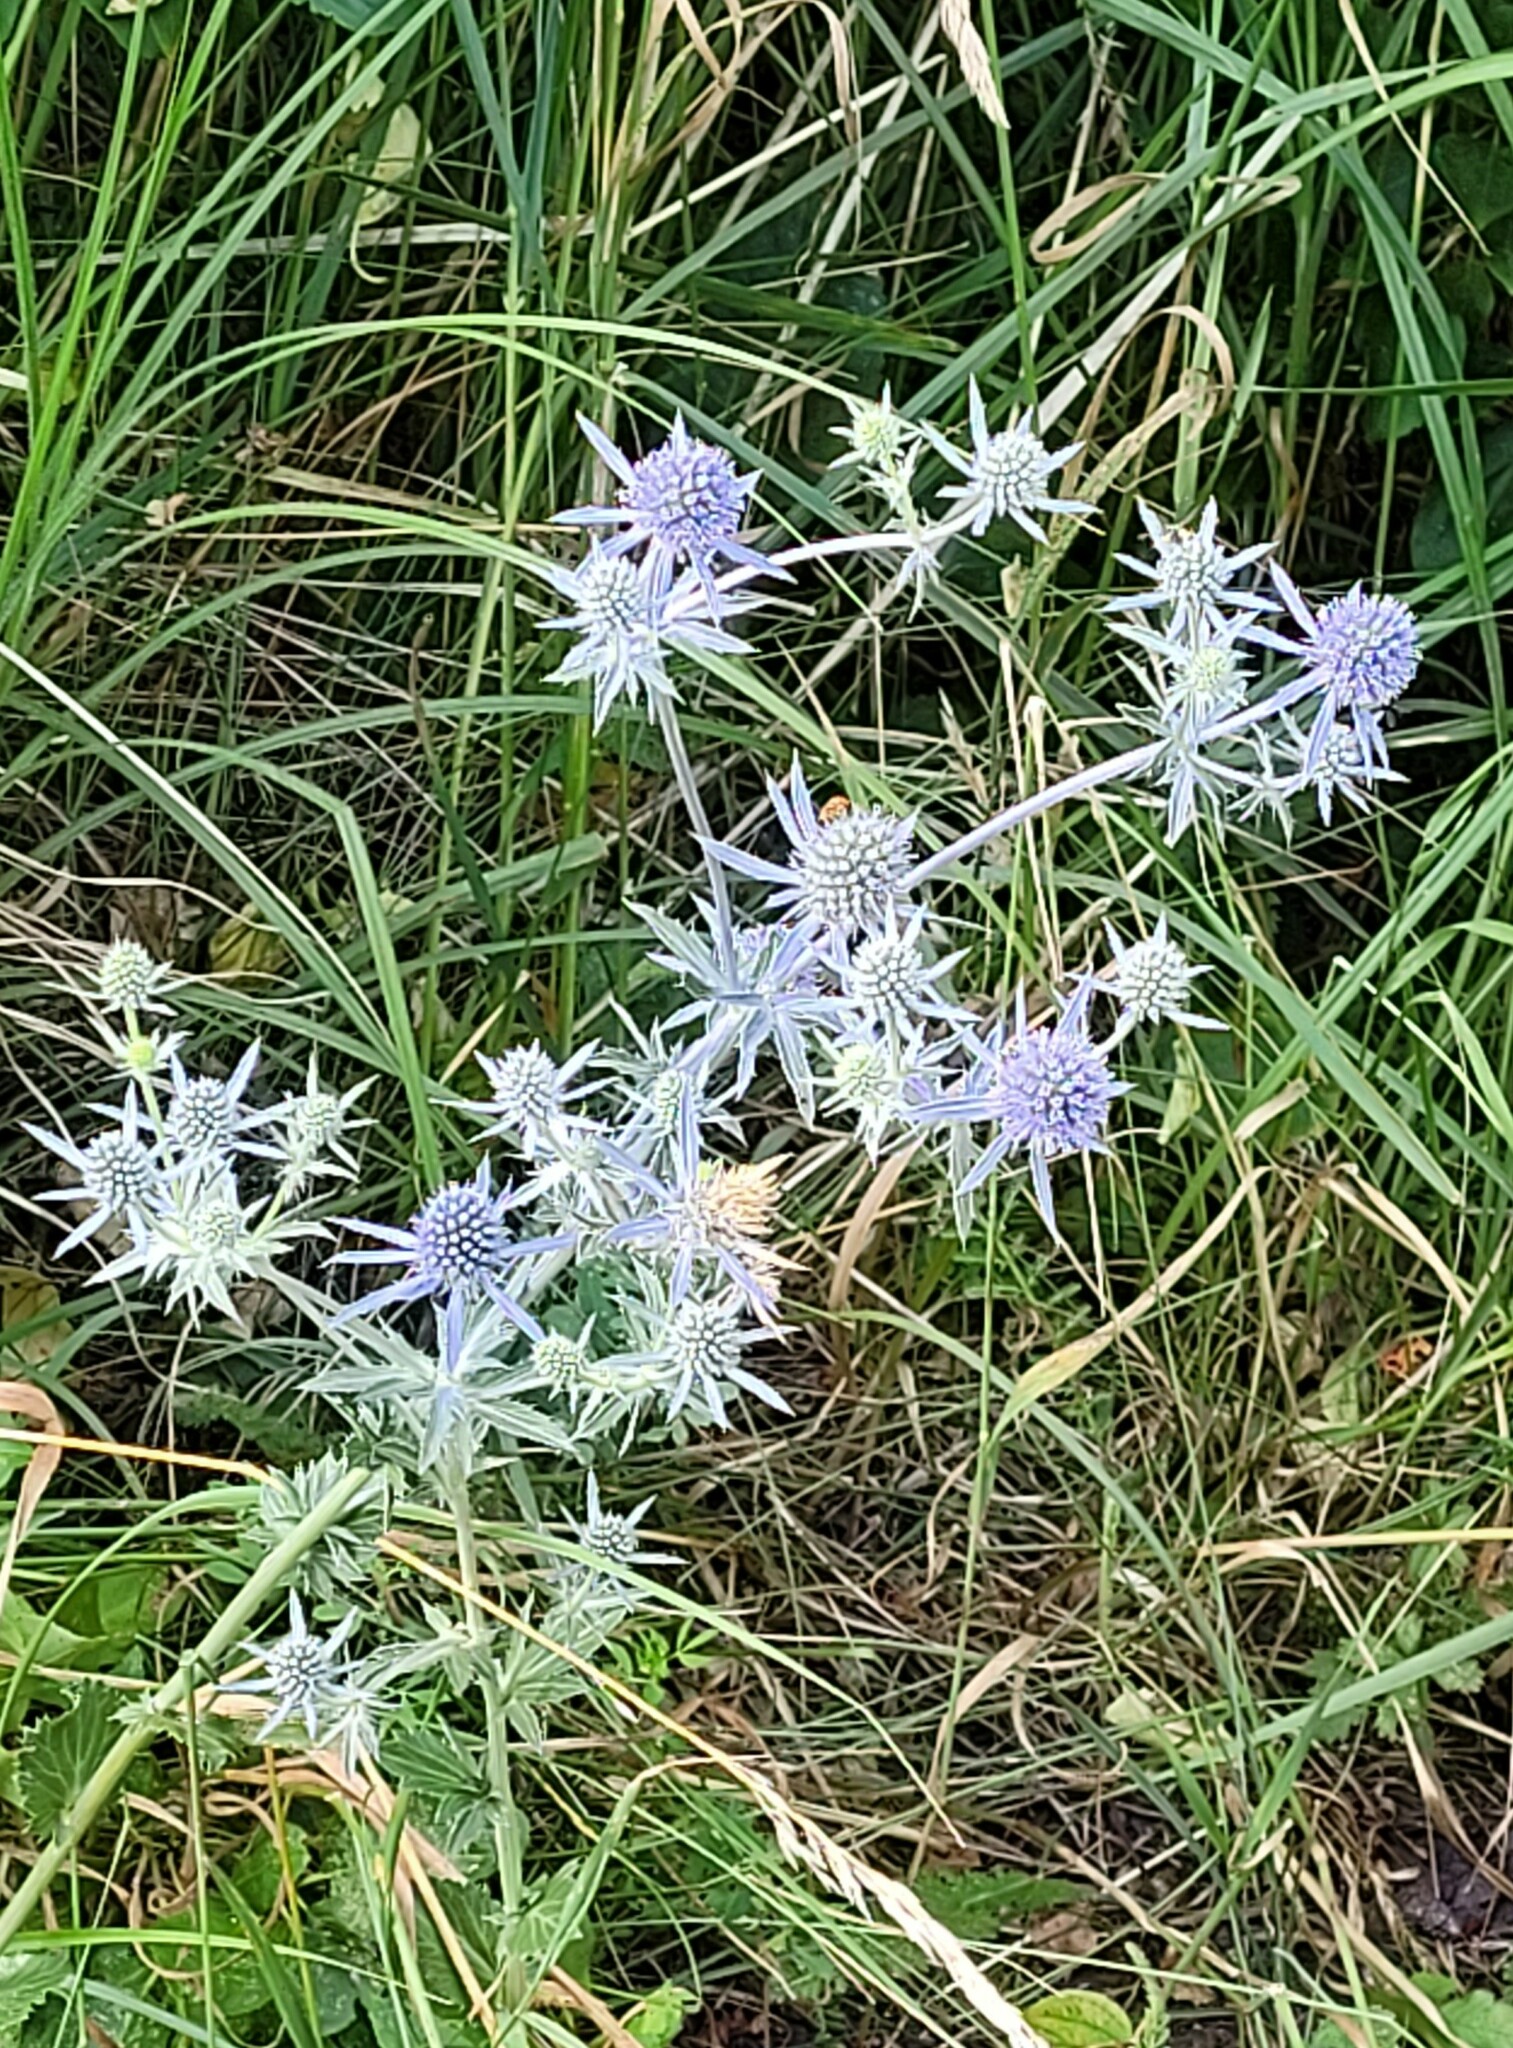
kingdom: Plantae
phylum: Tracheophyta
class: Magnoliopsida
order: Apiales
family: Apiaceae
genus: Eryngium
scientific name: Eryngium planum
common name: Blue eryngo
